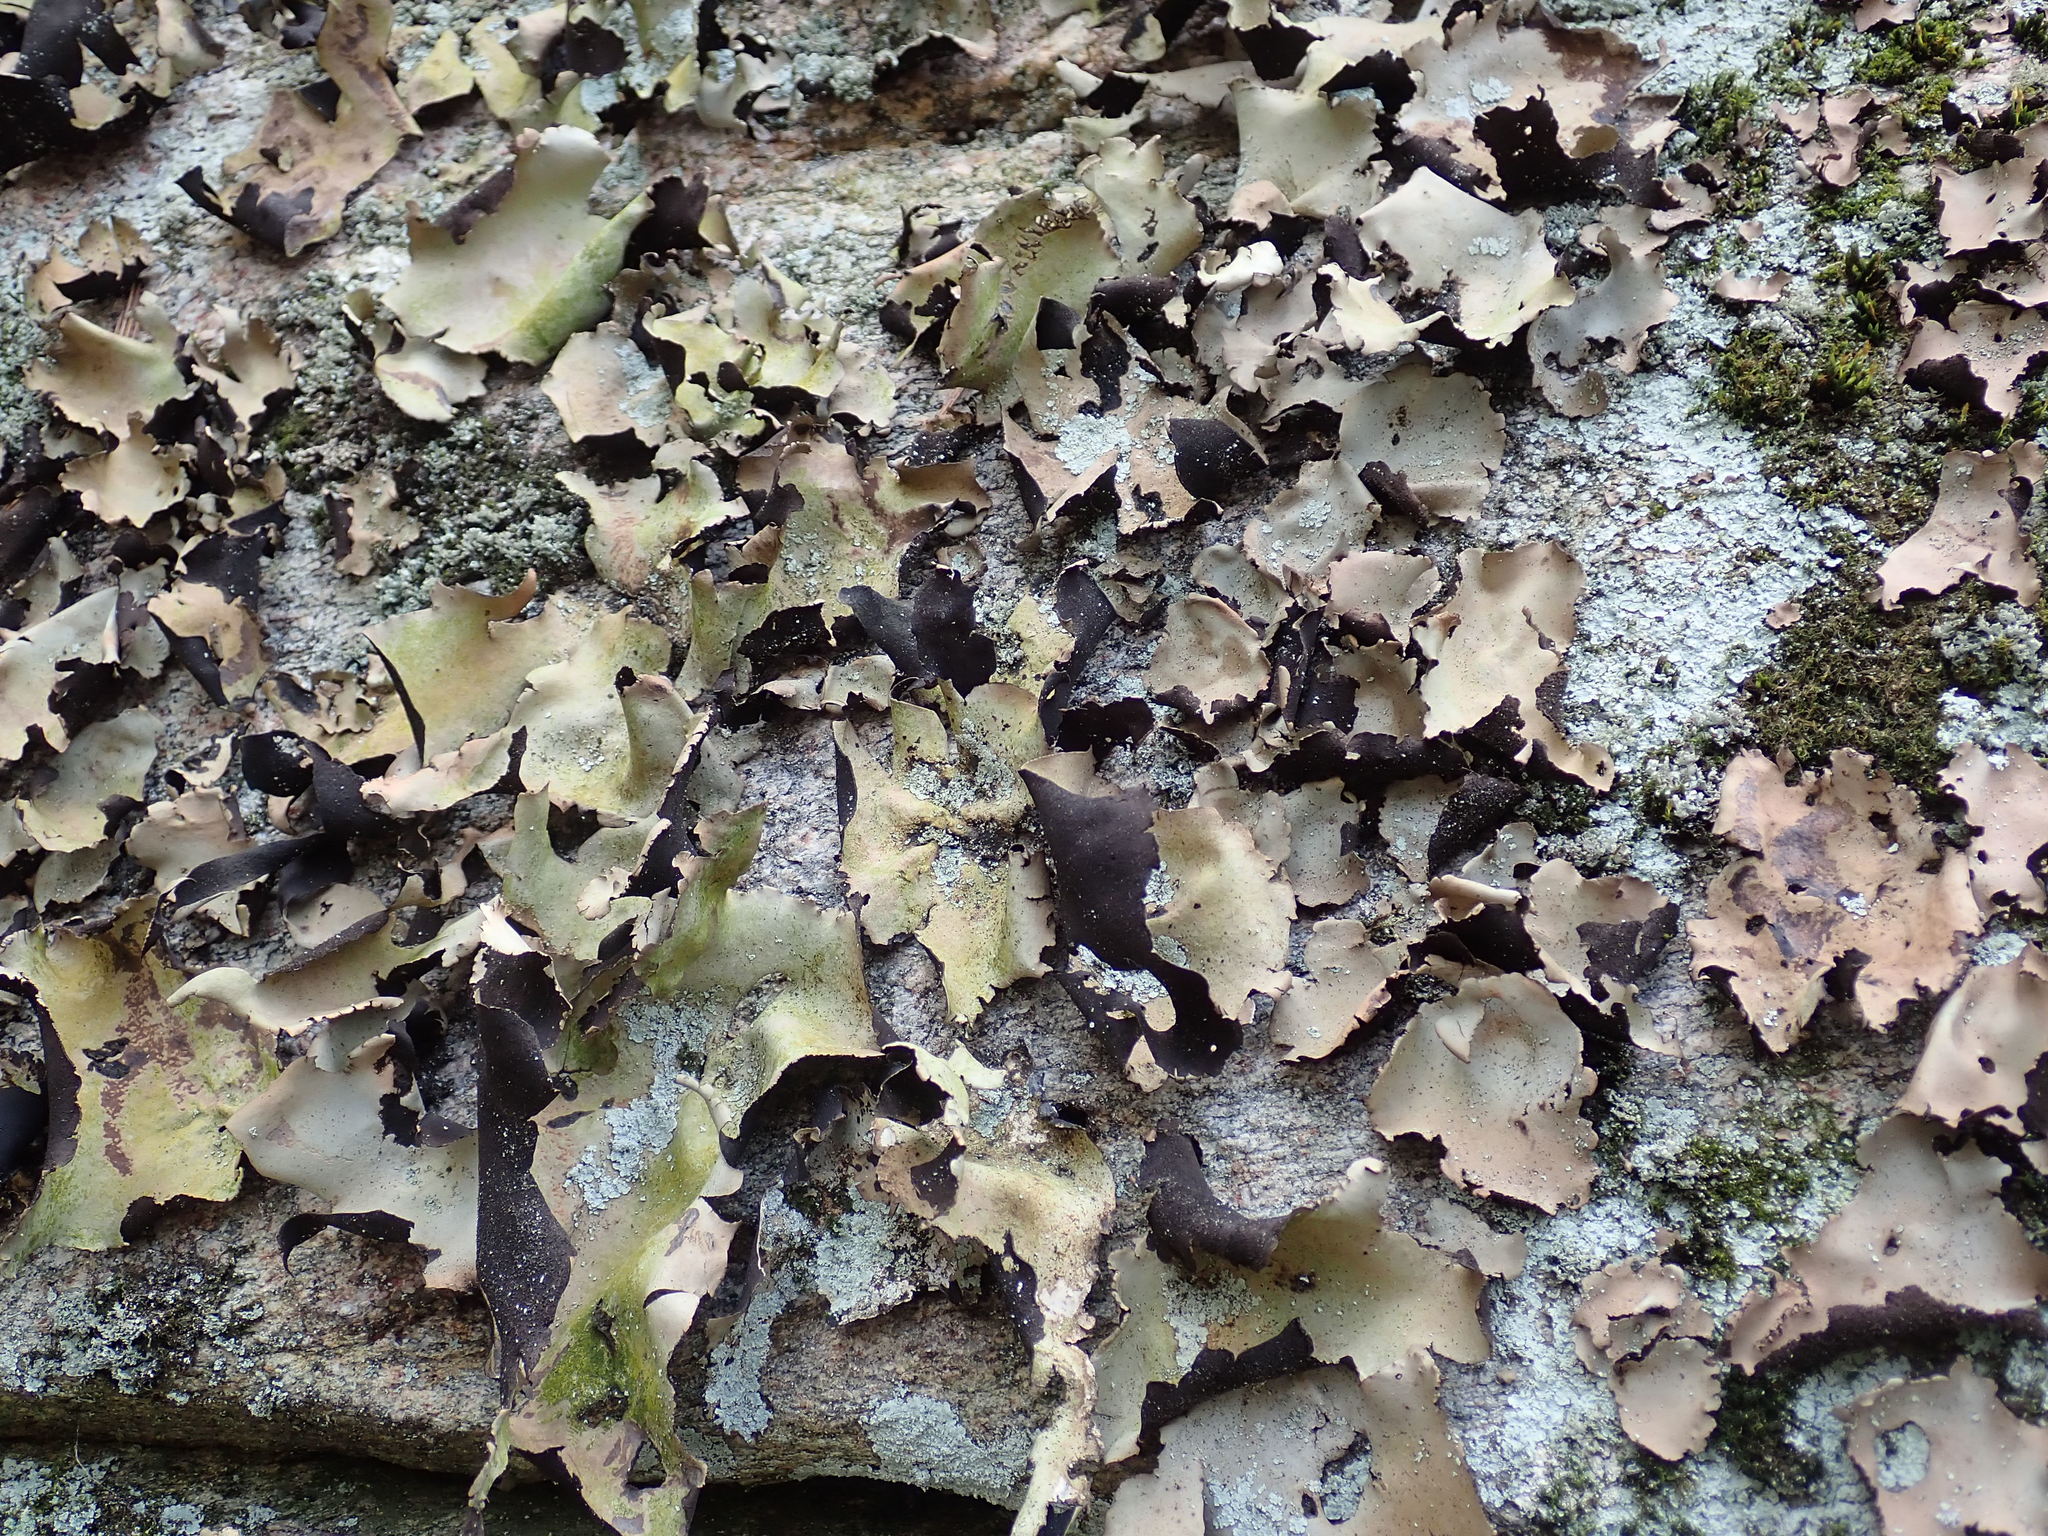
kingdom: Fungi
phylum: Ascomycota
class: Lecanoromycetes
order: Umbilicariales
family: Umbilicariaceae
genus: Umbilicaria
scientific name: Umbilicaria mammulata
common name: Smooth rock tripe
